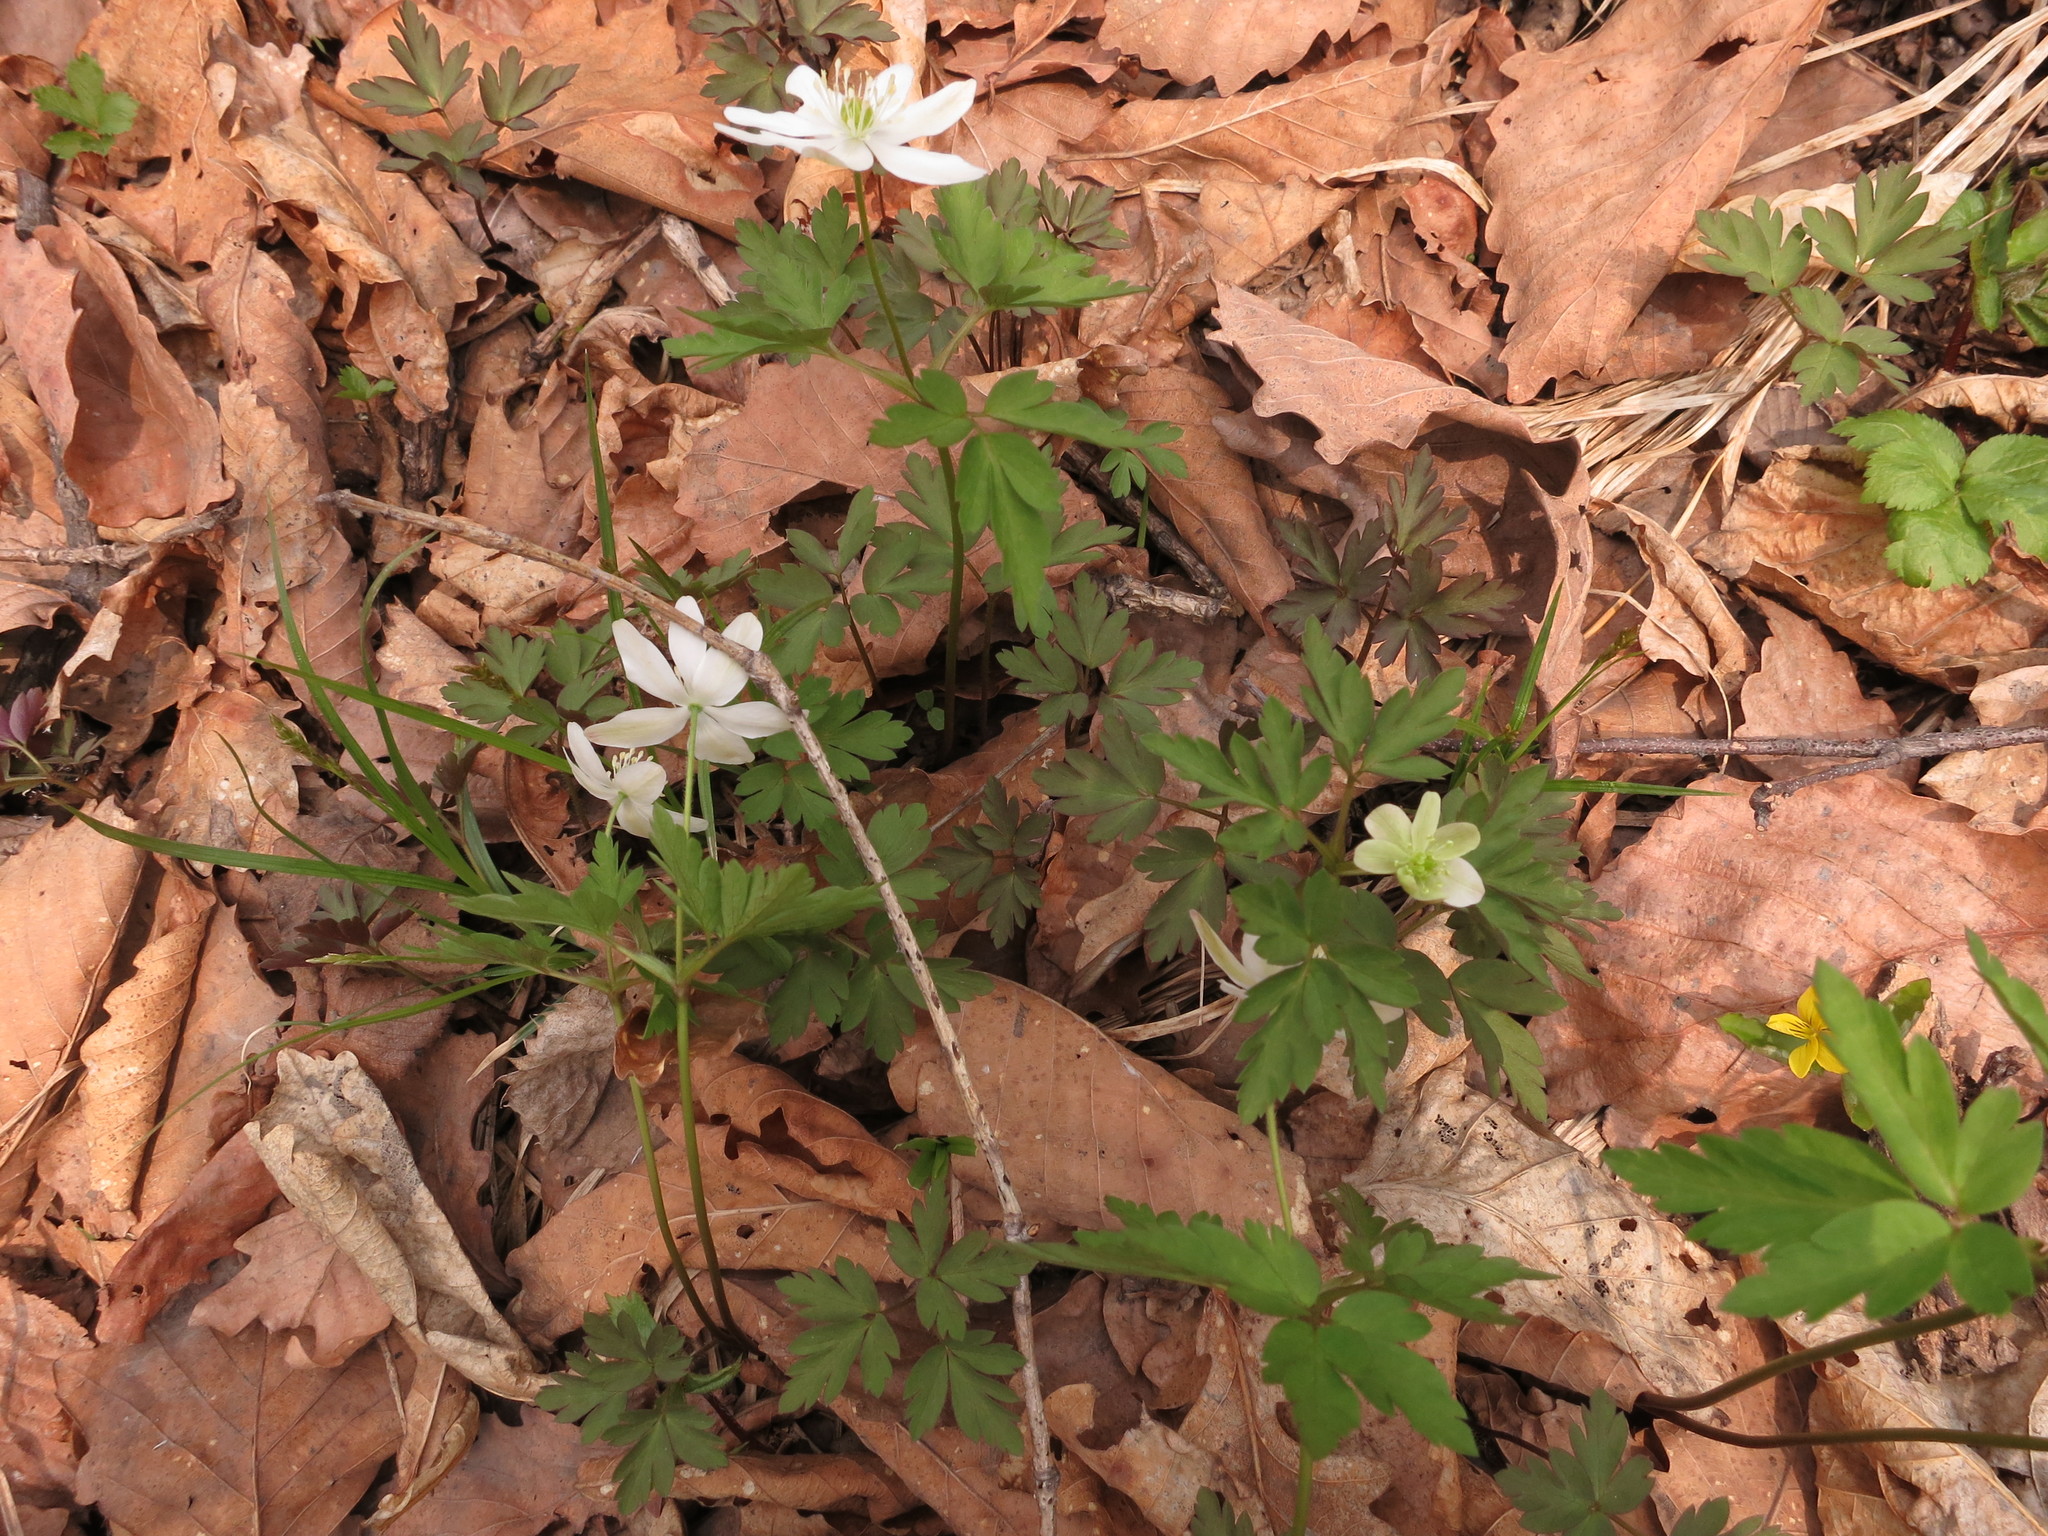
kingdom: Plantae
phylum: Tracheophyta
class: Magnoliopsida
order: Ranunculales
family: Ranunculaceae
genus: Anemone
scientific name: Anemone amurensis
